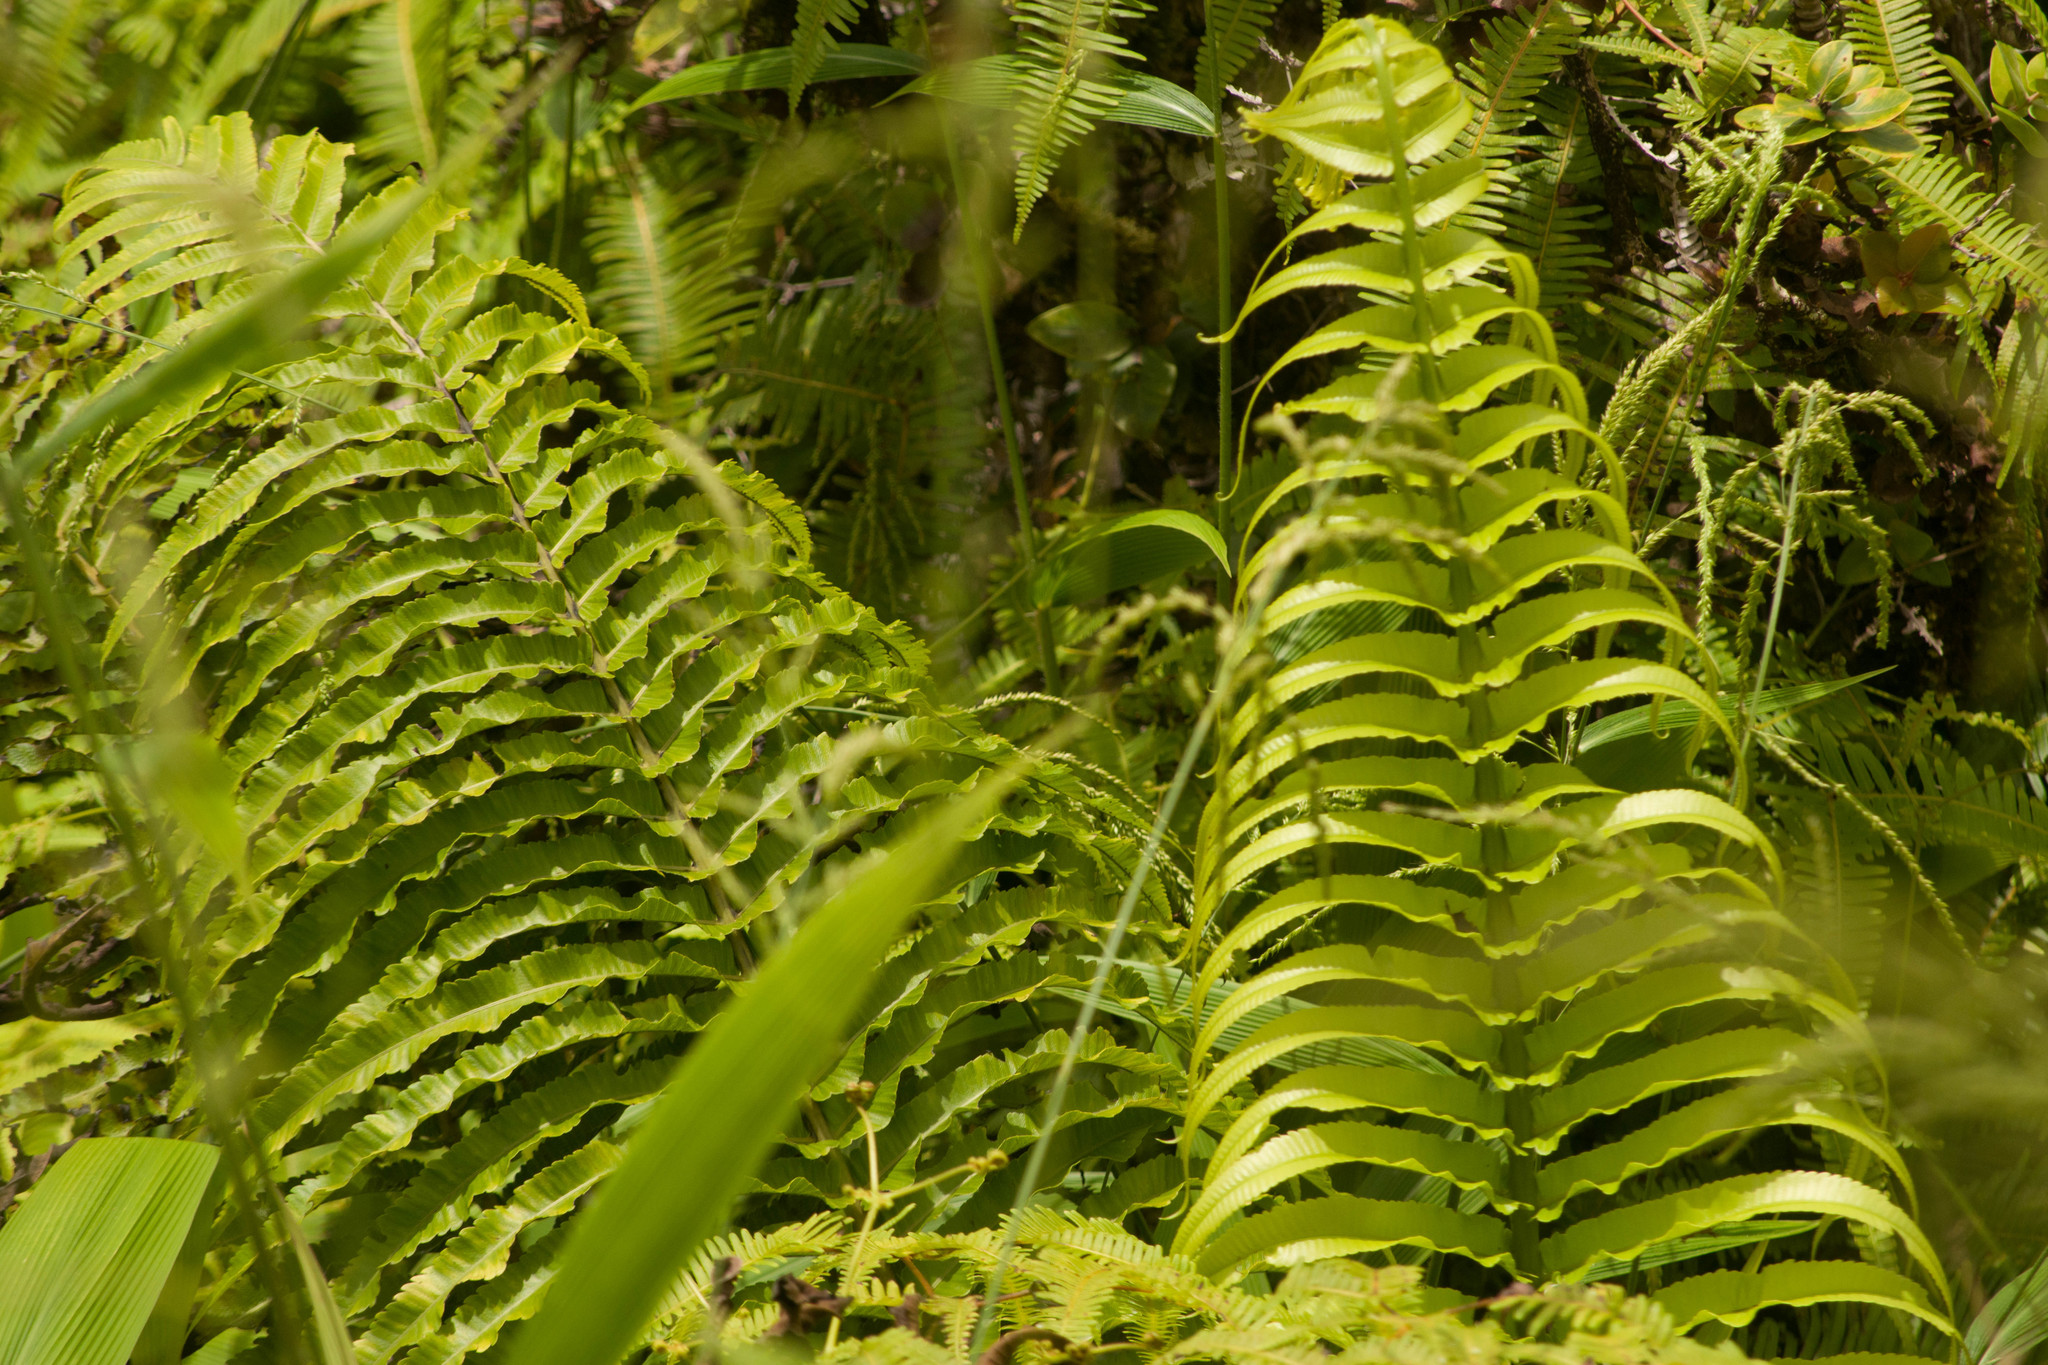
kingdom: Plantae
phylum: Tracheophyta
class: Polypodiopsida
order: Polypodiales
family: Thelypteridaceae
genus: Menisciopsis
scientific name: Menisciopsis cyatheoides
